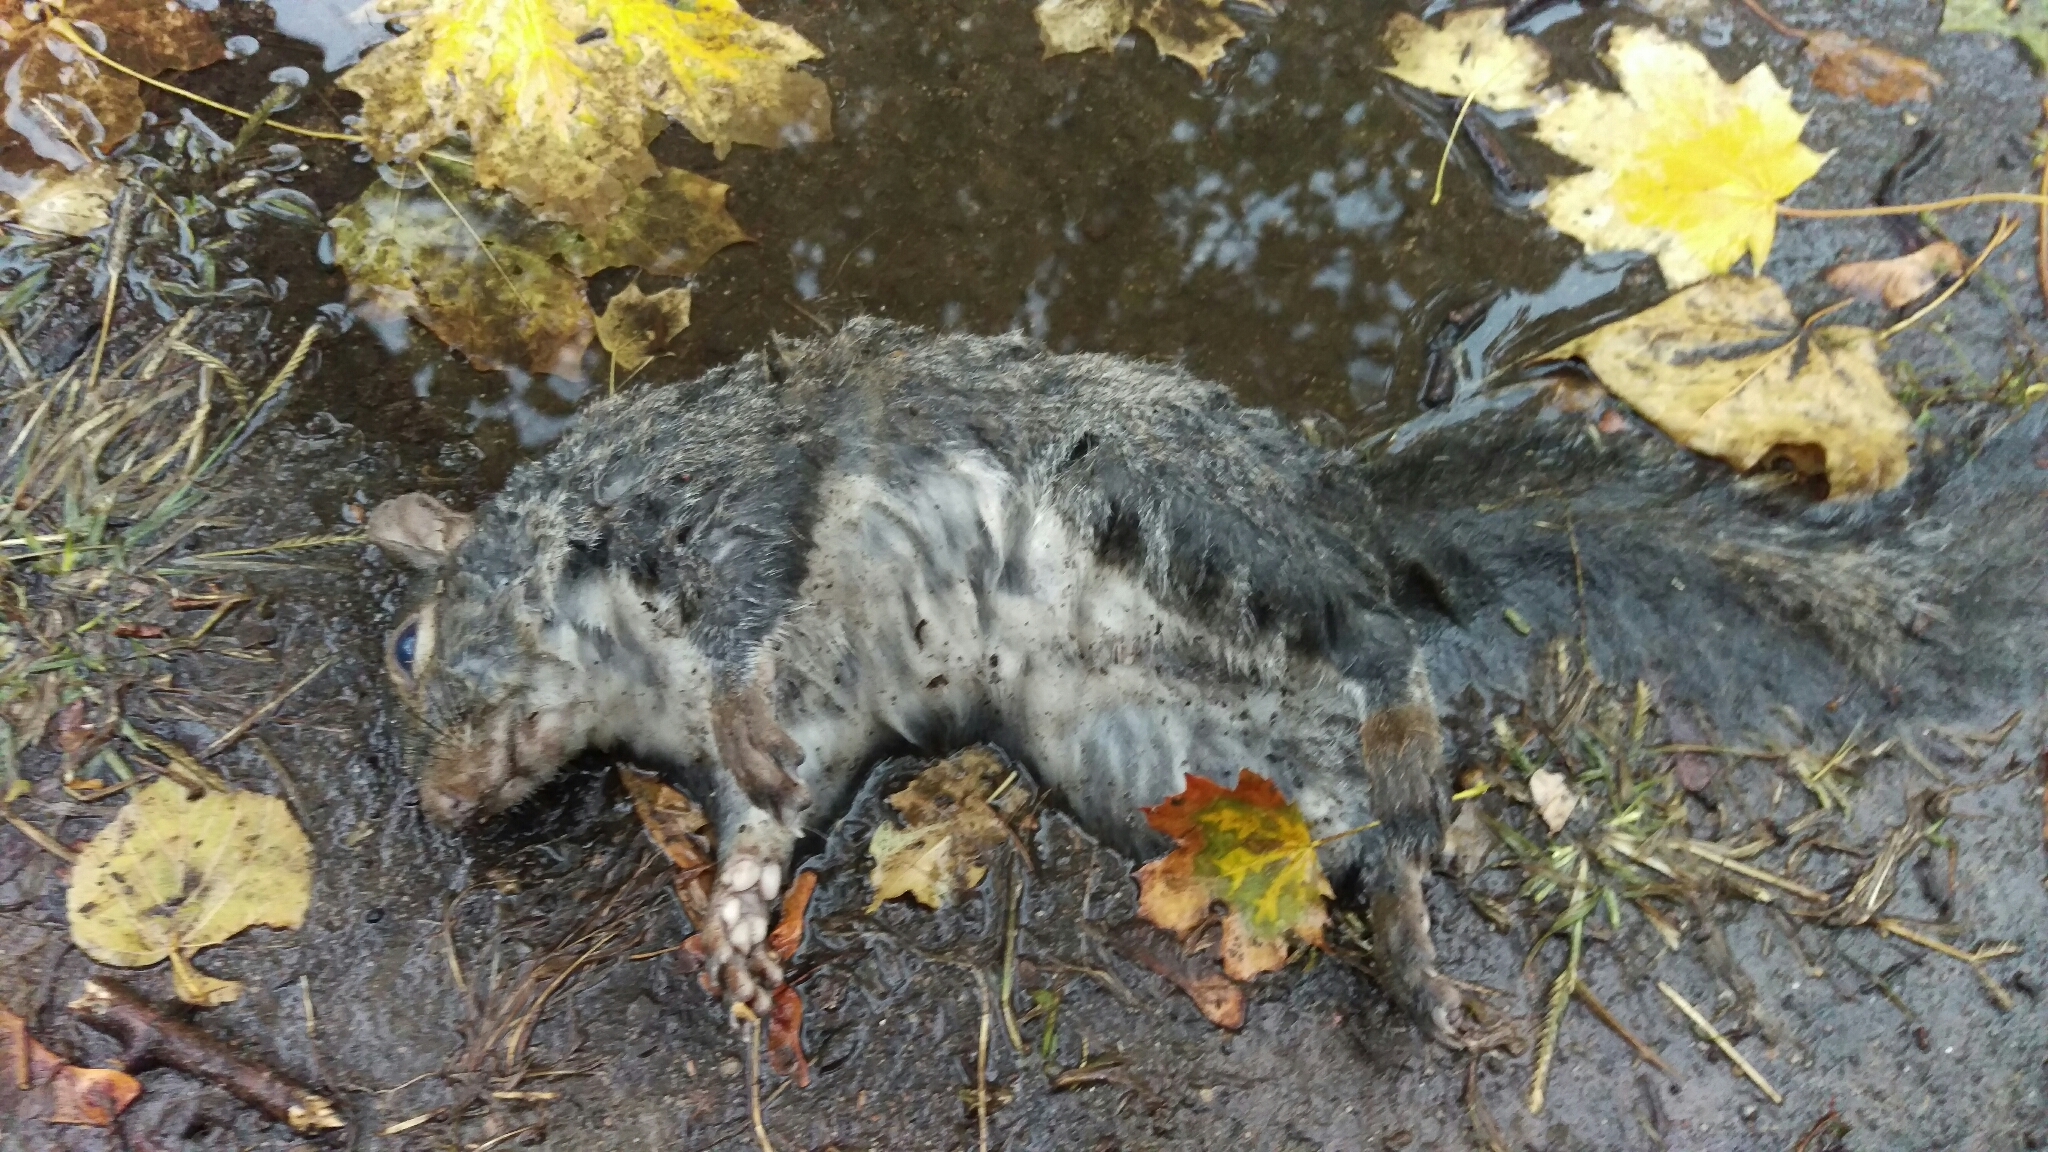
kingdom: Animalia
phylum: Chordata
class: Mammalia
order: Rodentia
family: Sciuridae
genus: Sciurus
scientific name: Sciurus carolinensis
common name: Eastern gray squirrel
